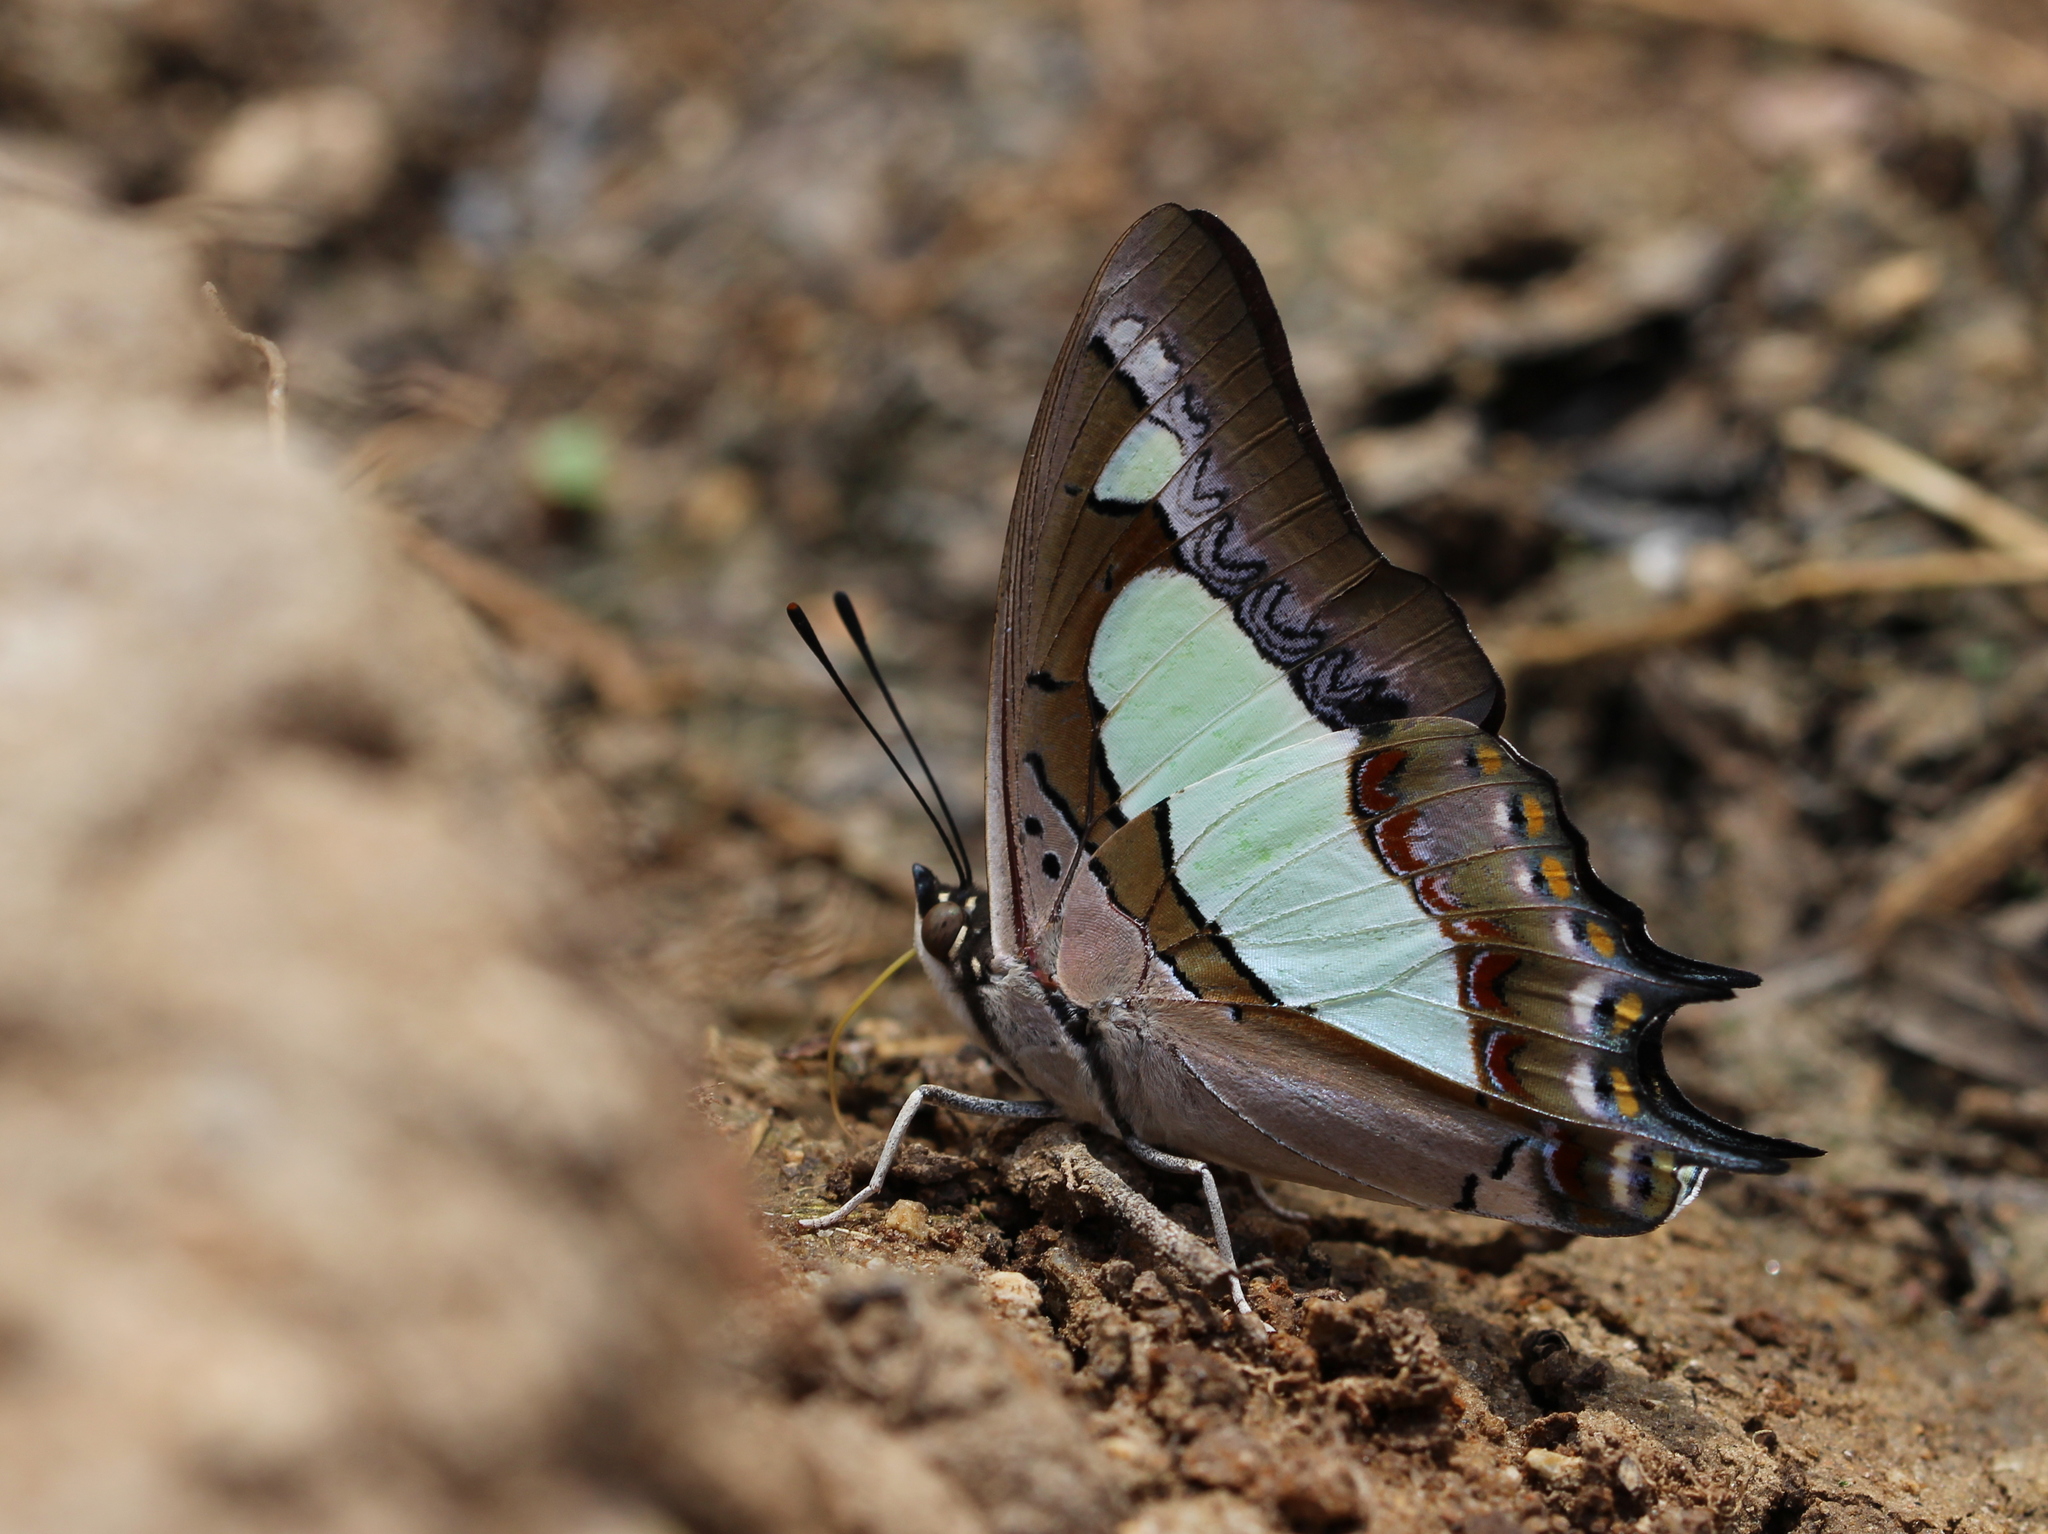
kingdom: Animalia
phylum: Arthropoda
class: Insecta
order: Lepidoptera
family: Nymphalidae
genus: Polyura
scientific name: Polyura agrarius
